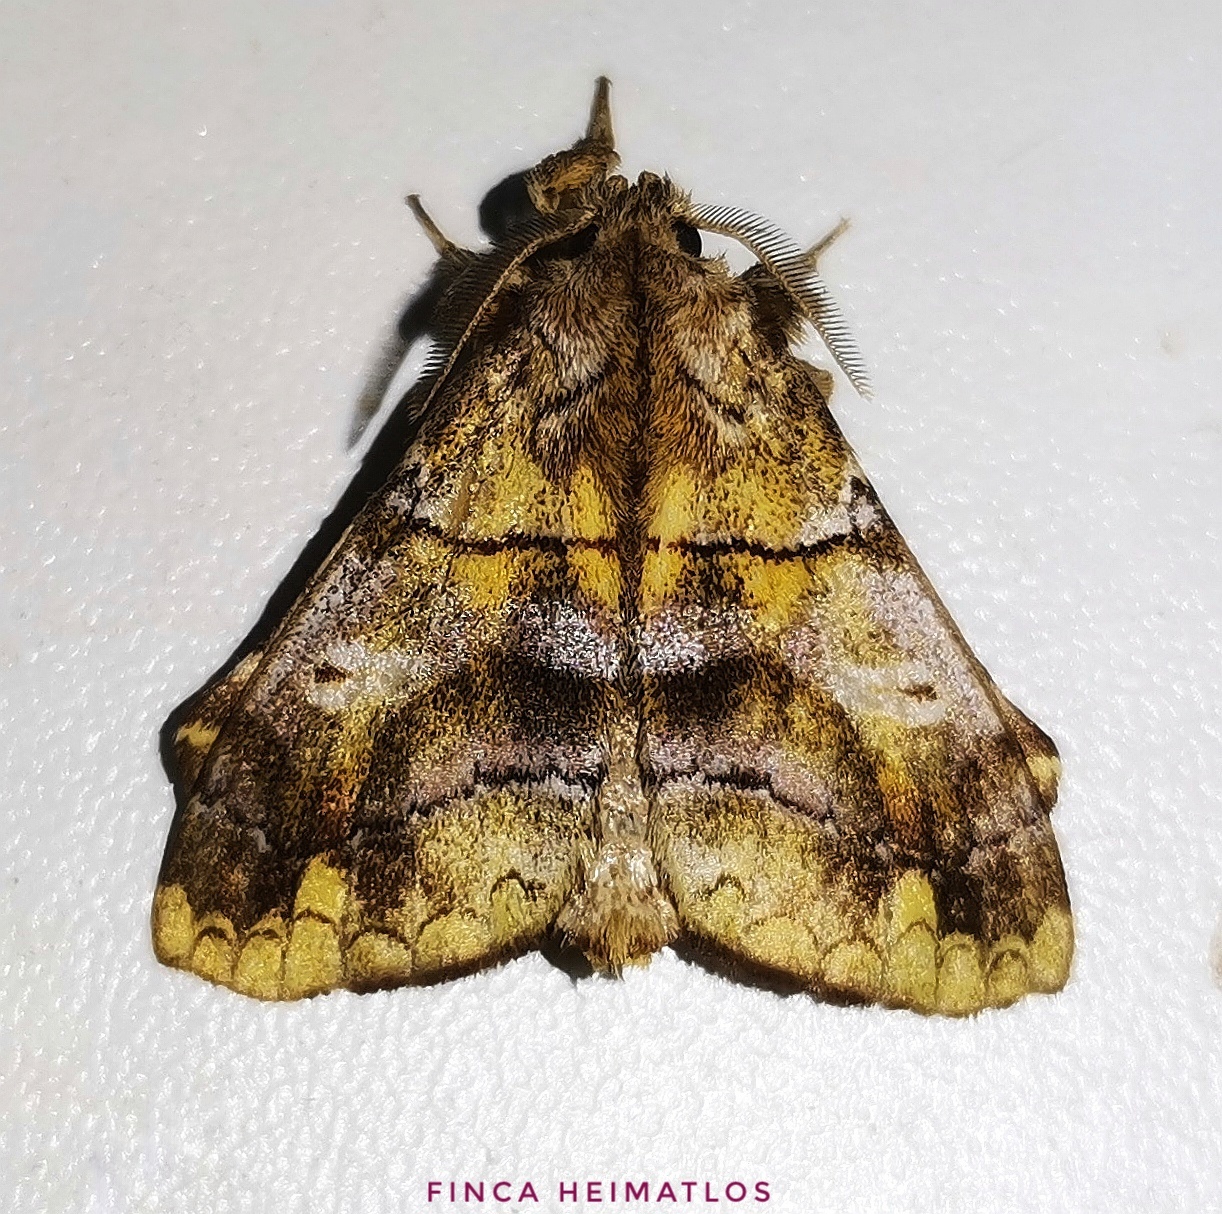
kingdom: Animalia
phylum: Arthropoda
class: Insecta
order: Lepidoptera
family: Apatelodidae
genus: Zanola
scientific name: Zanola verago
